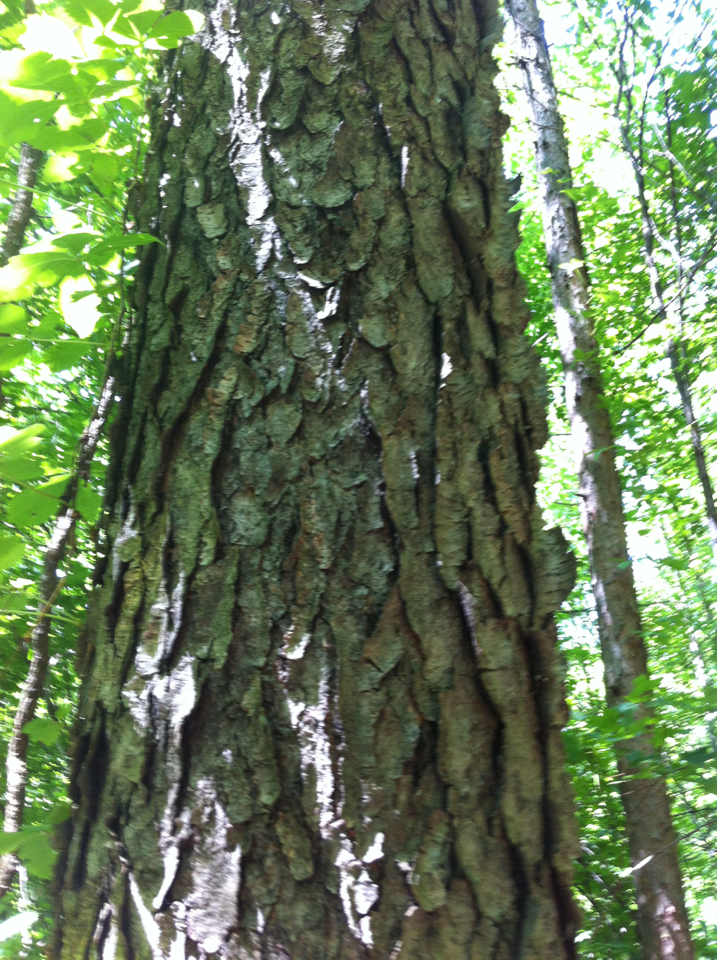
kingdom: Plantae
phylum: Tracheophyta
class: Magnoliopsida
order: Rosales
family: Rosaceae
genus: Prunus
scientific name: Prunus serotina
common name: Black cherry
